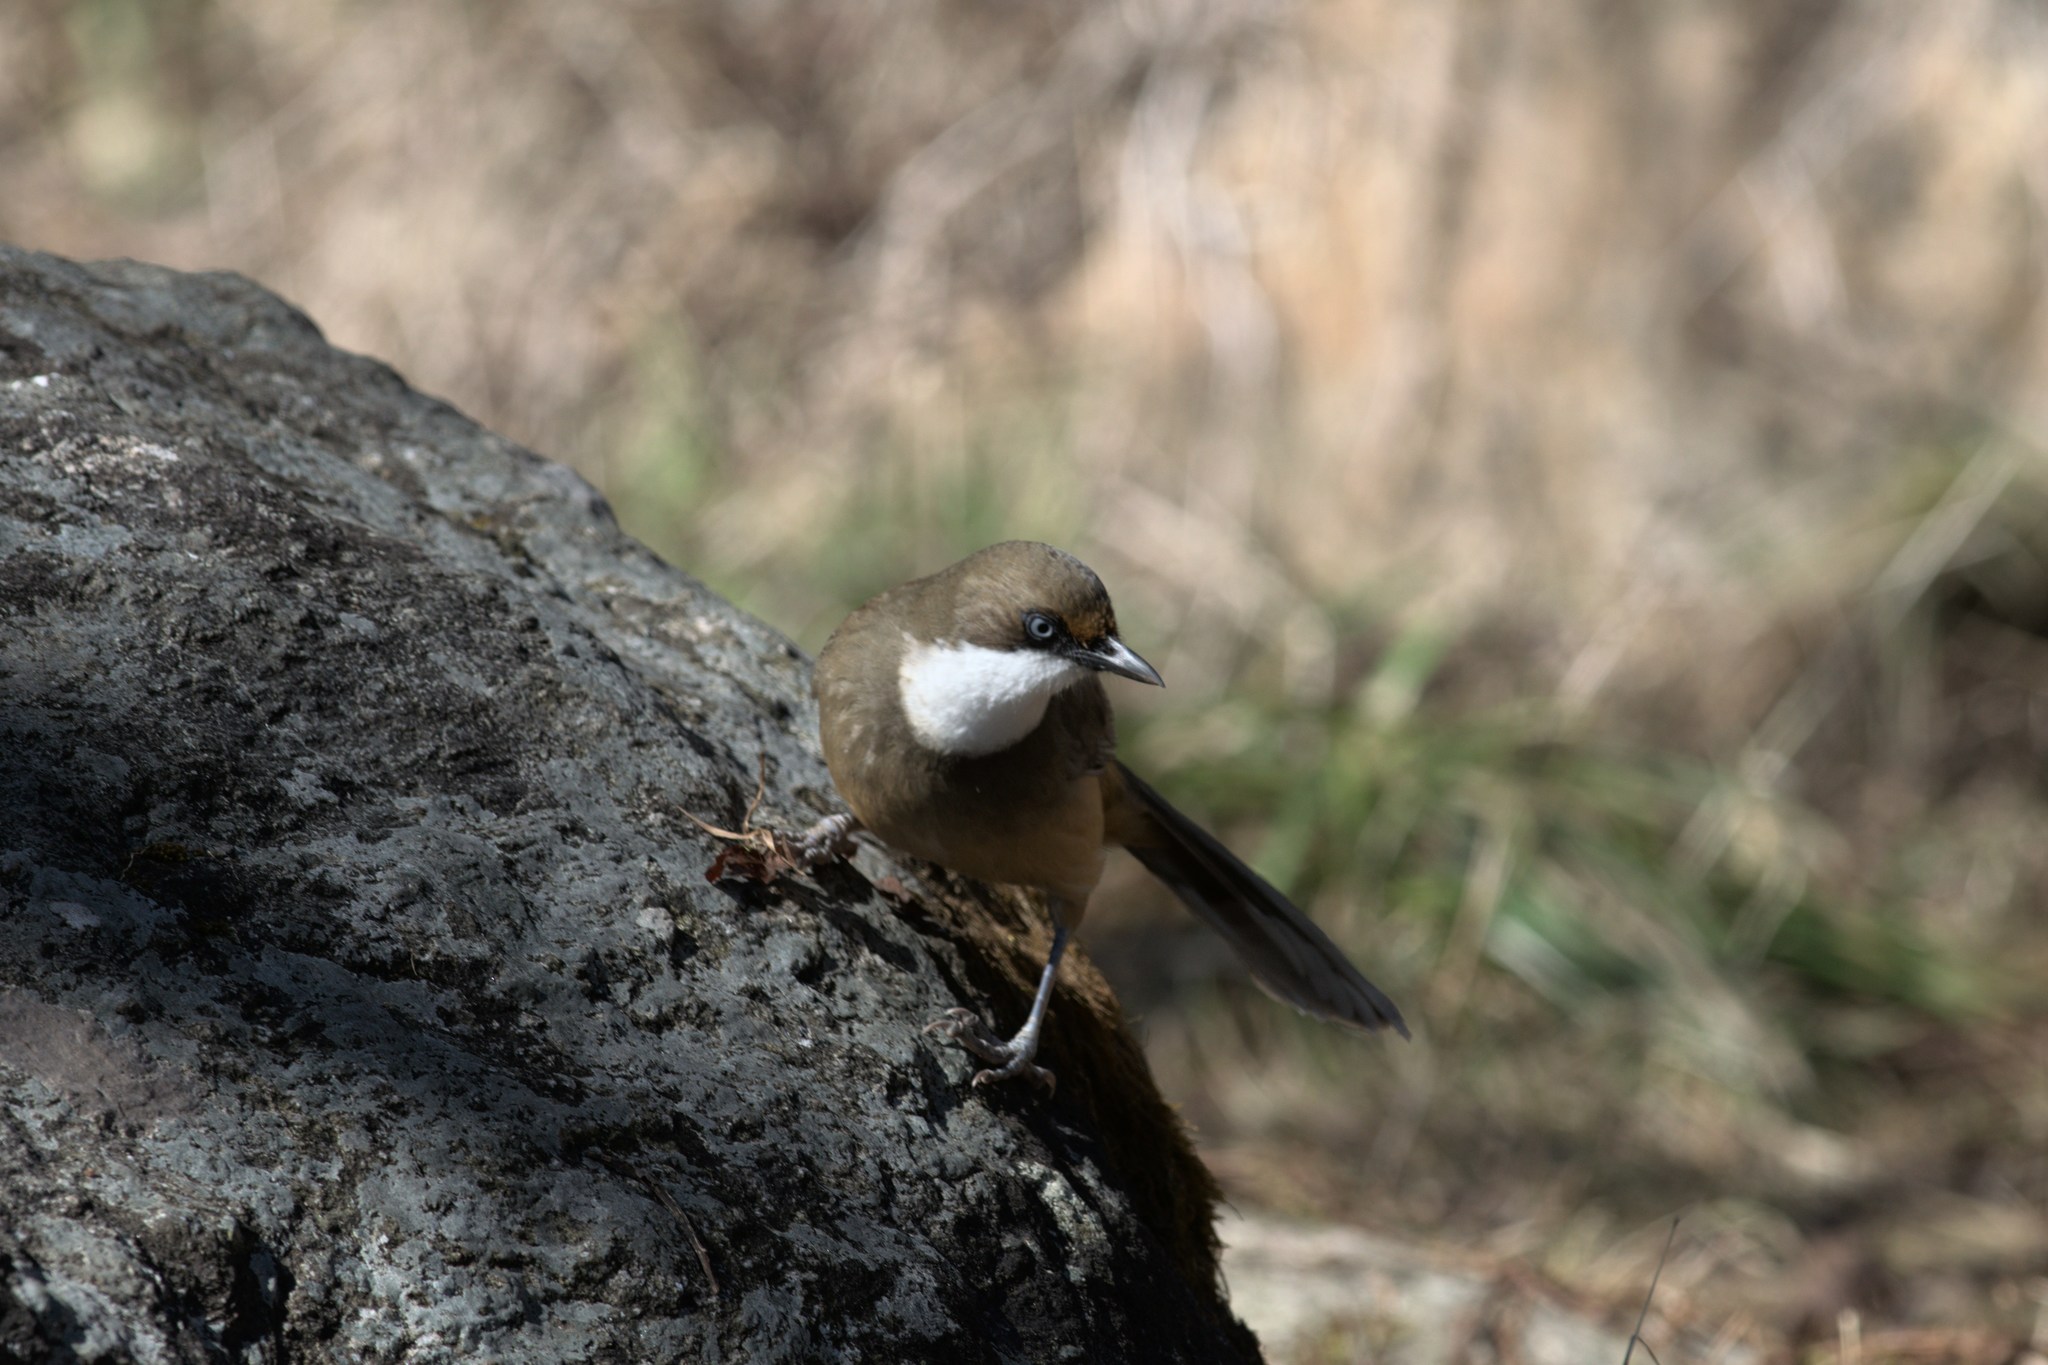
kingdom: Animalia
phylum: Chordata
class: Aves
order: Passeriformes
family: Leiothrichidae
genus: Garrulax
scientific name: Garrulax albogularis
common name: White-throated laughingthrush
